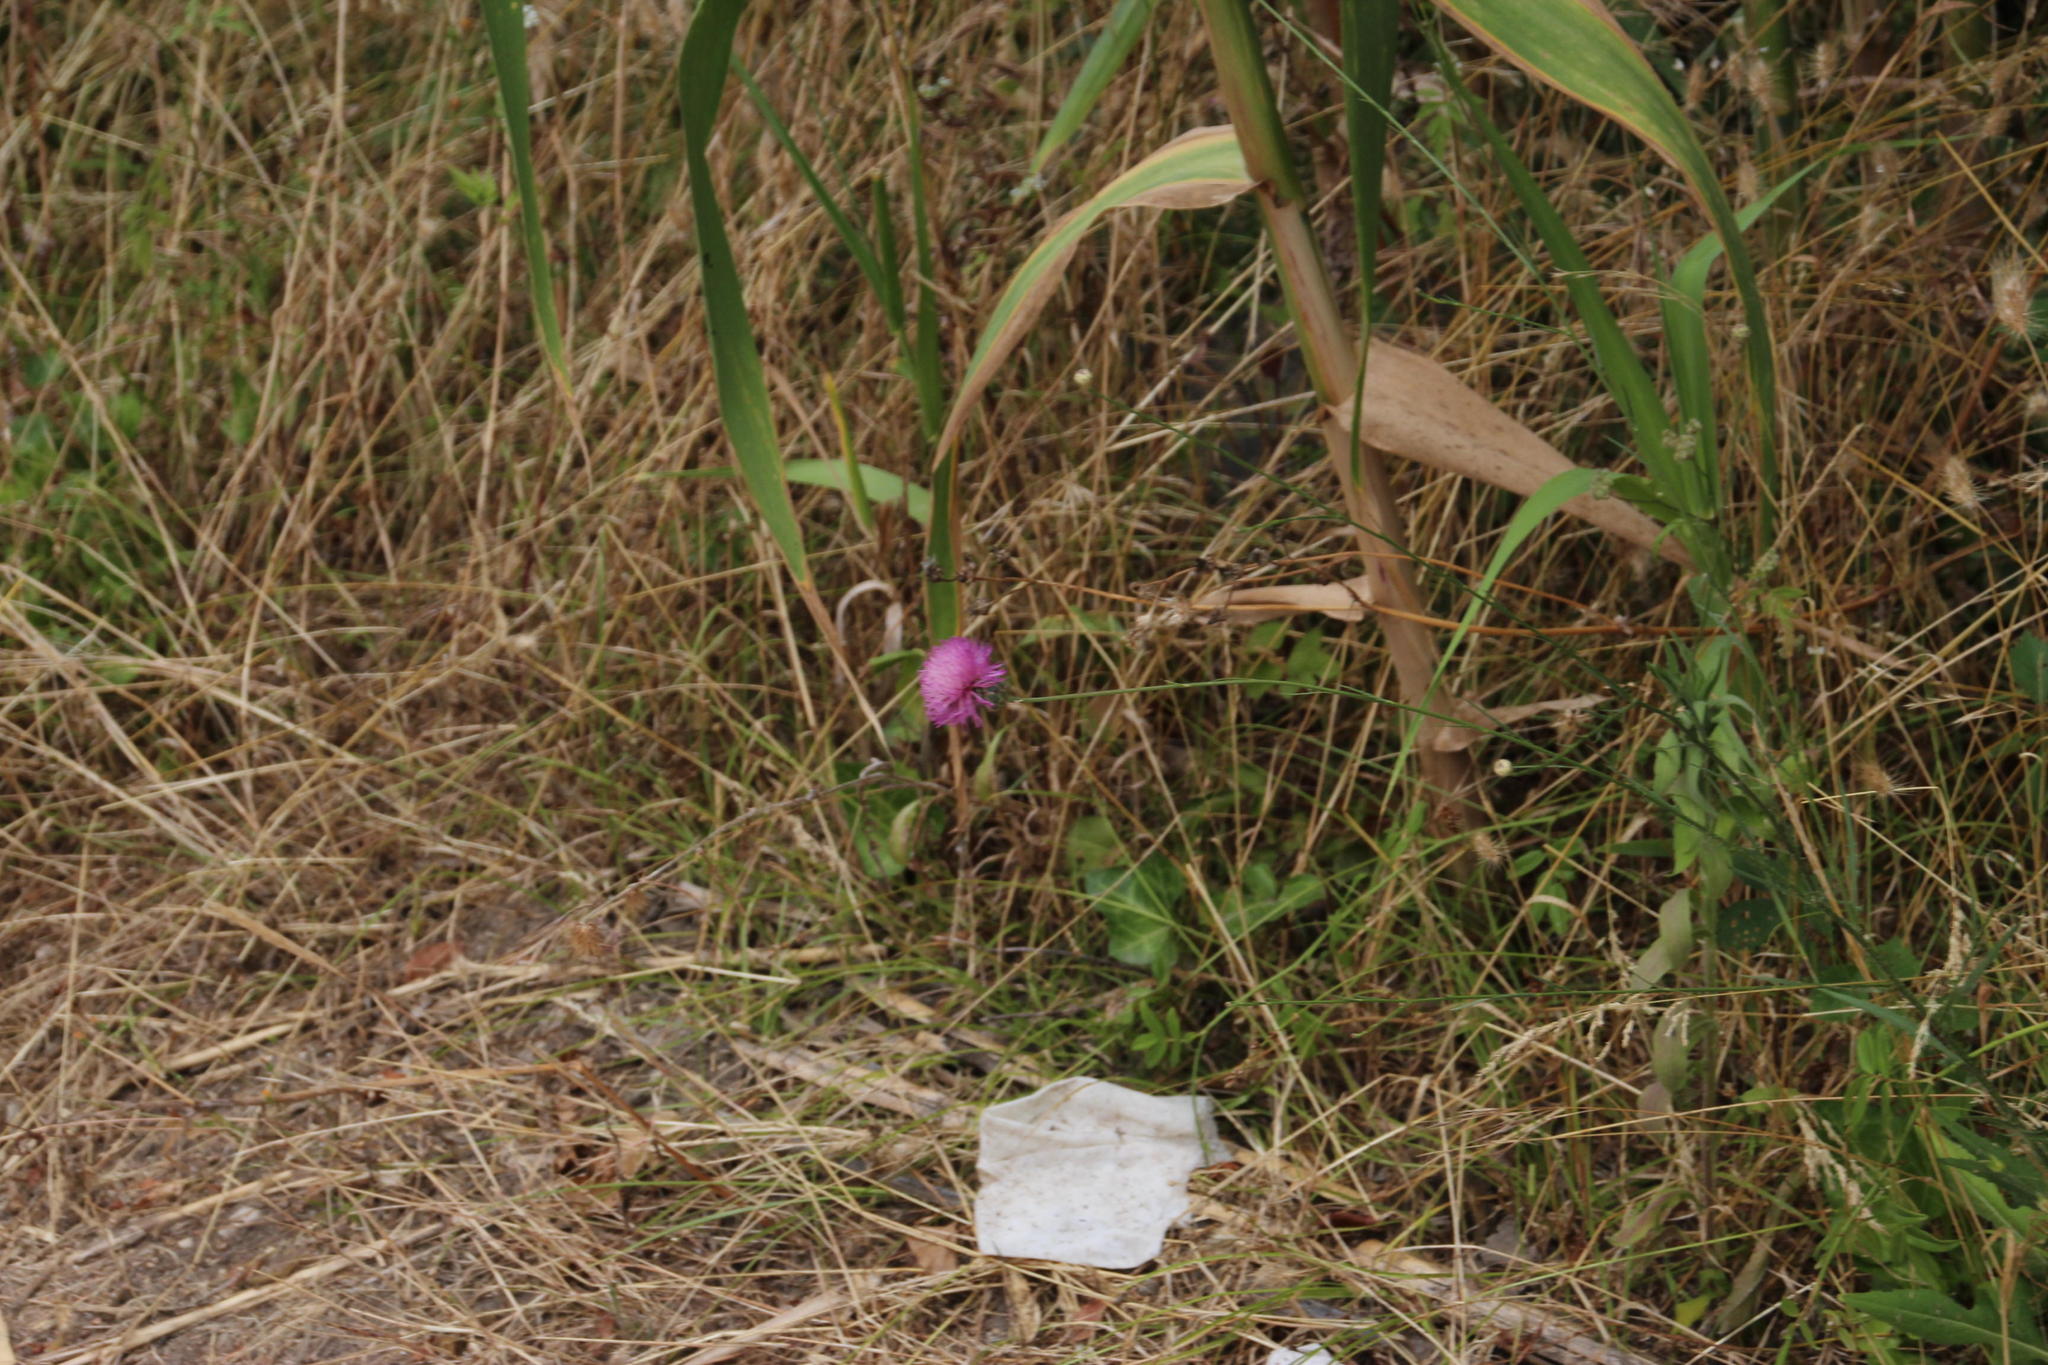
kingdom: Plantae
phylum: Tracheophyta
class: Magnoliopsida
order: Asterales
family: Asteraceae
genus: Mantisalca
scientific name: Mantisalca salmantica
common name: Dagger flower
